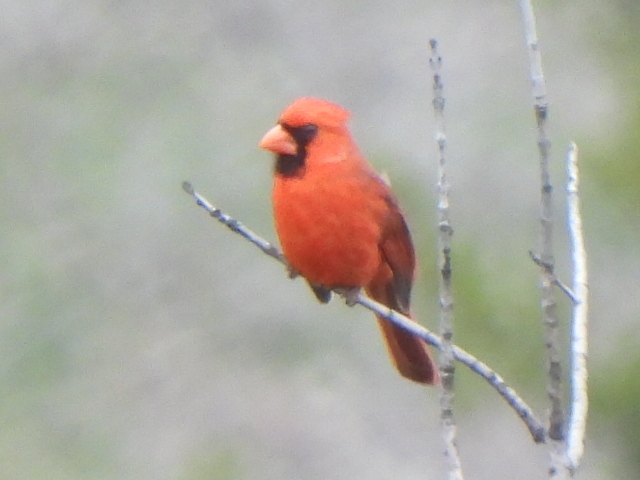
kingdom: Animalia
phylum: Chordata
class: Aves
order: Passeriformes
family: Cardinalidae
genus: Cardinalis
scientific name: Cardinalis cardinalis
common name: Northern cardinal
